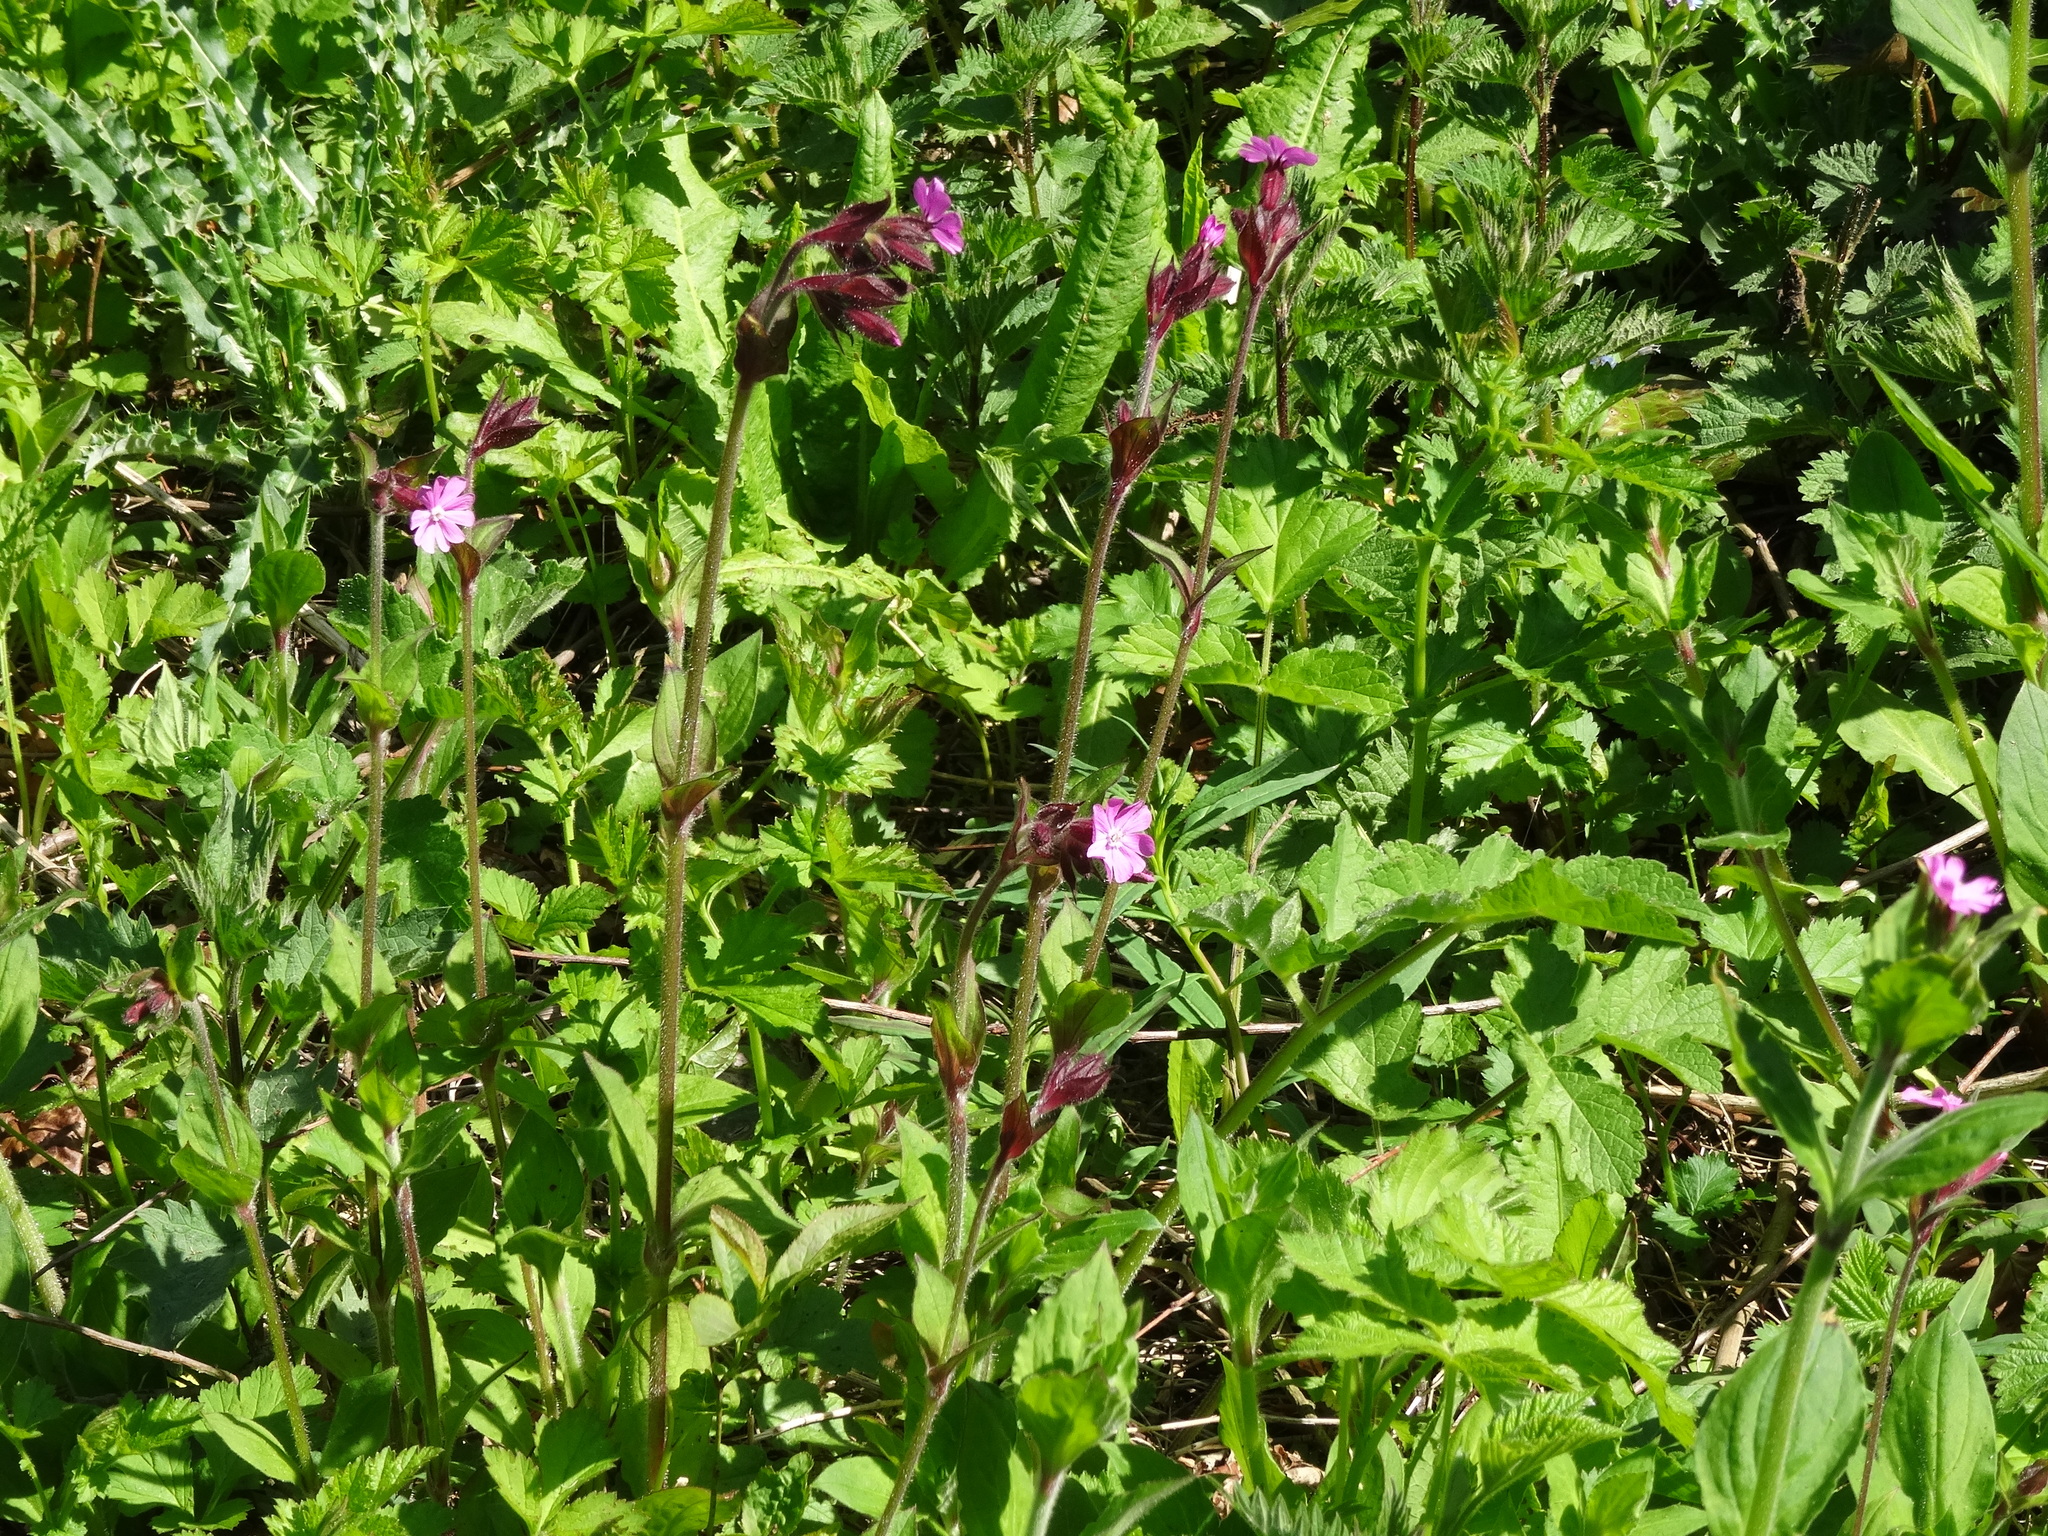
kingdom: Plantae
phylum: Tracheophyta
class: Magnoliopsida
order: Caryophyllales
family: Caryophyllaceae
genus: Silene
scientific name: Silene dioica
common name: Red campion
